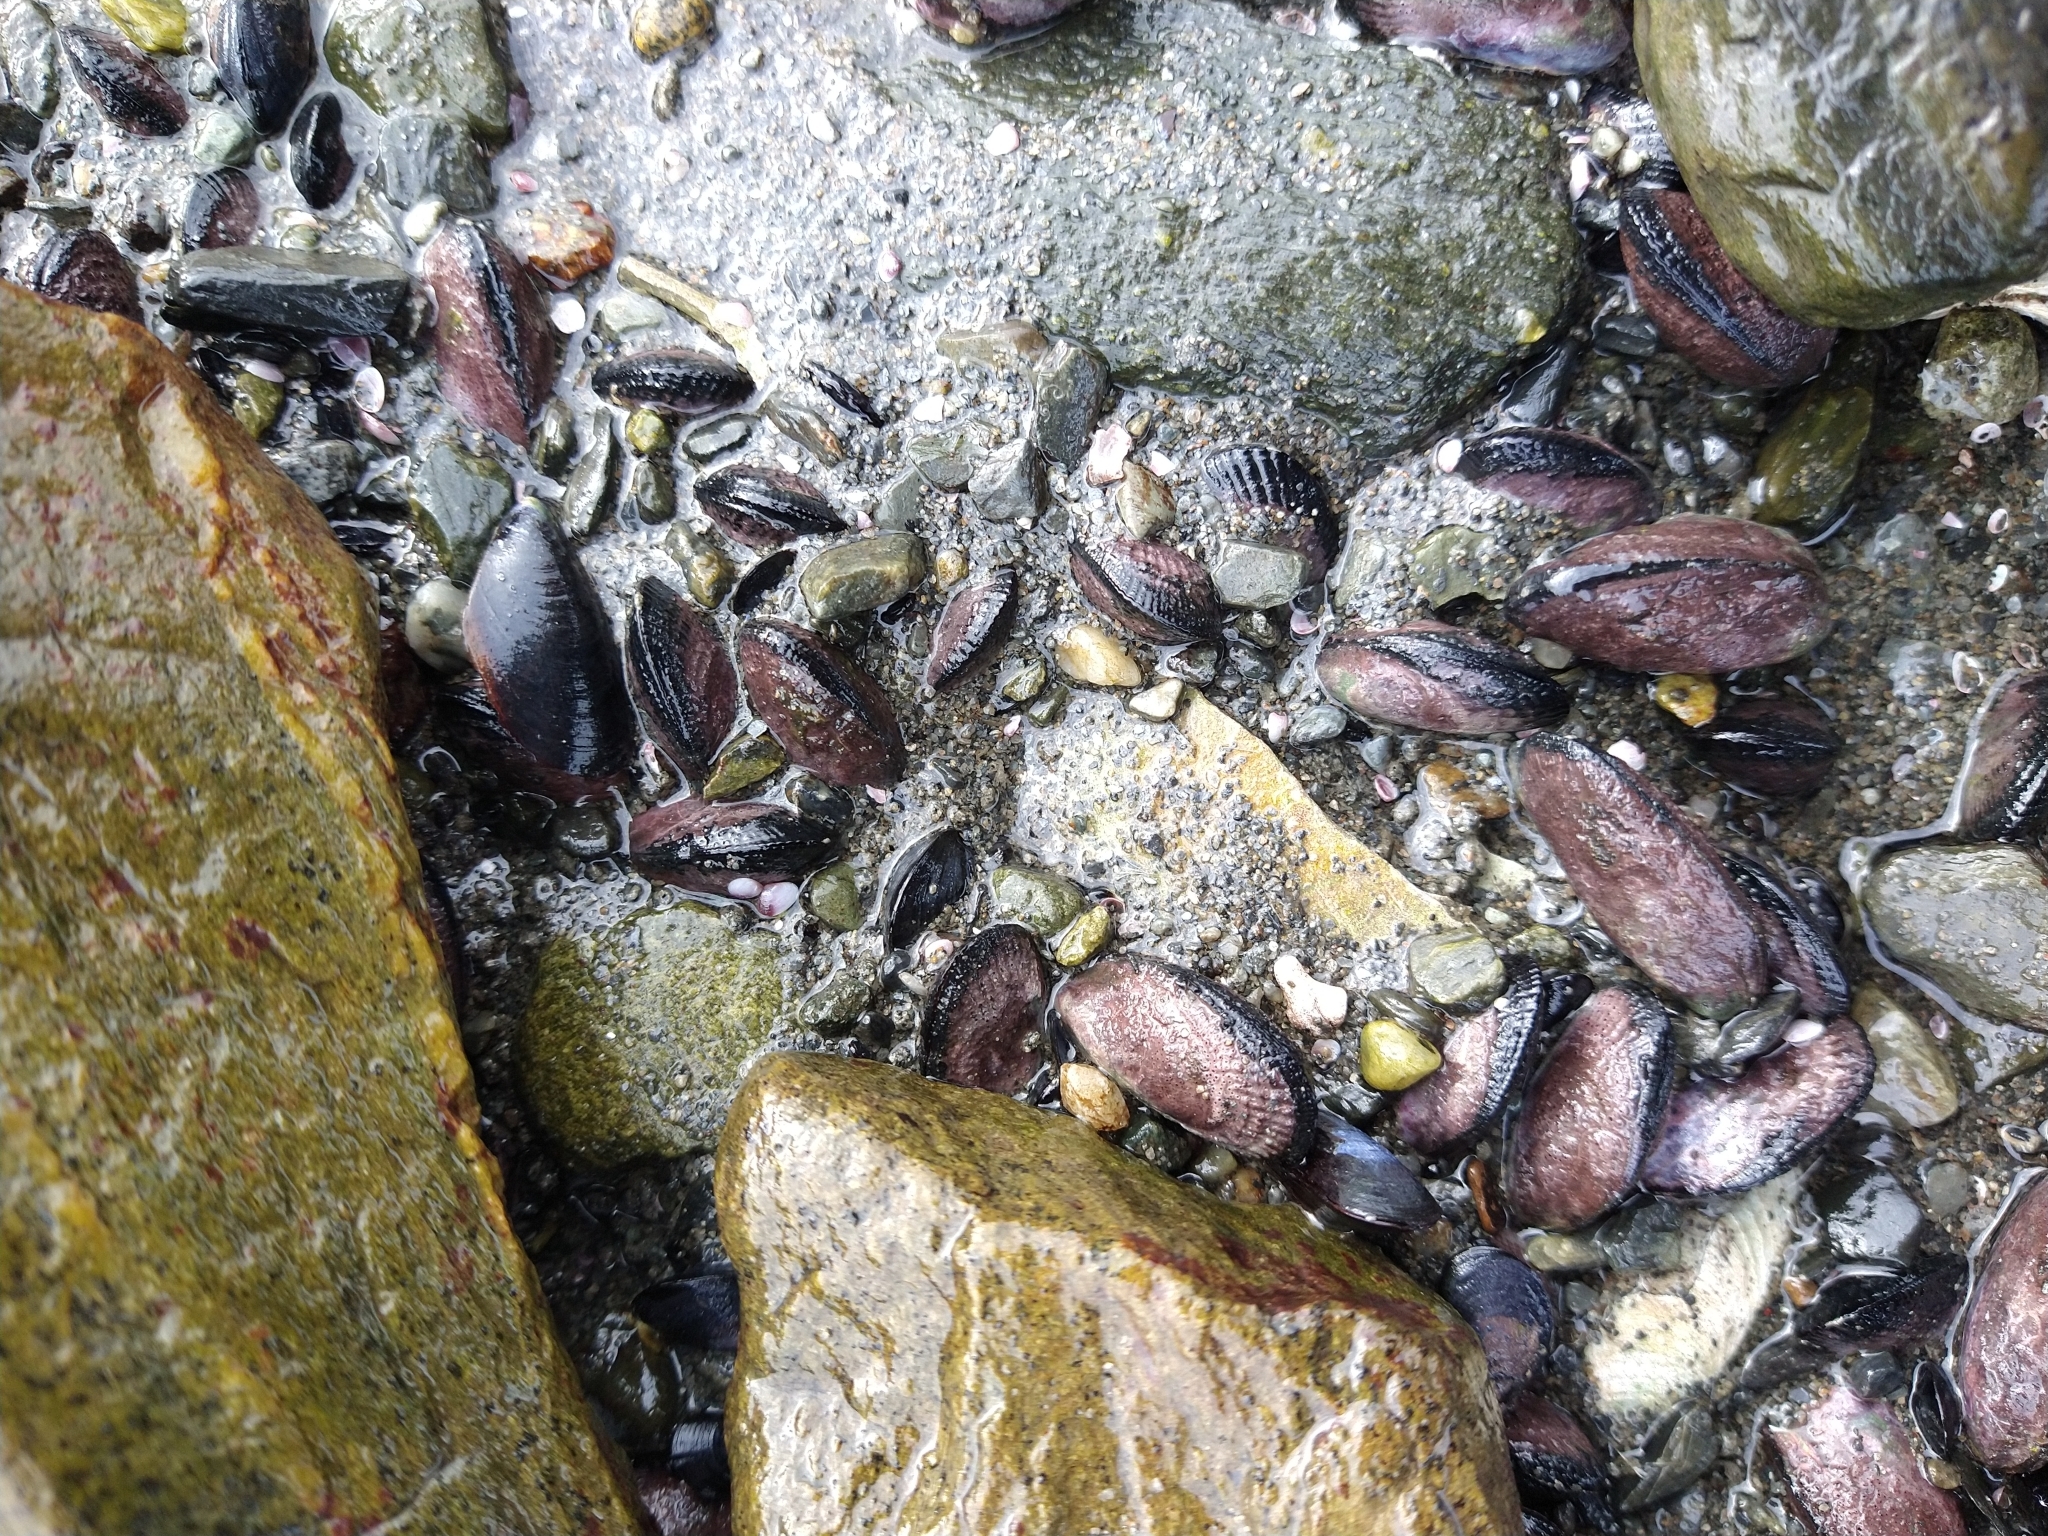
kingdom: Animalia
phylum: Mollusca
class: Bivalvia
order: Mytilida
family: Mytilidae
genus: Perumytilus
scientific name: Perumytilus purpuratus
